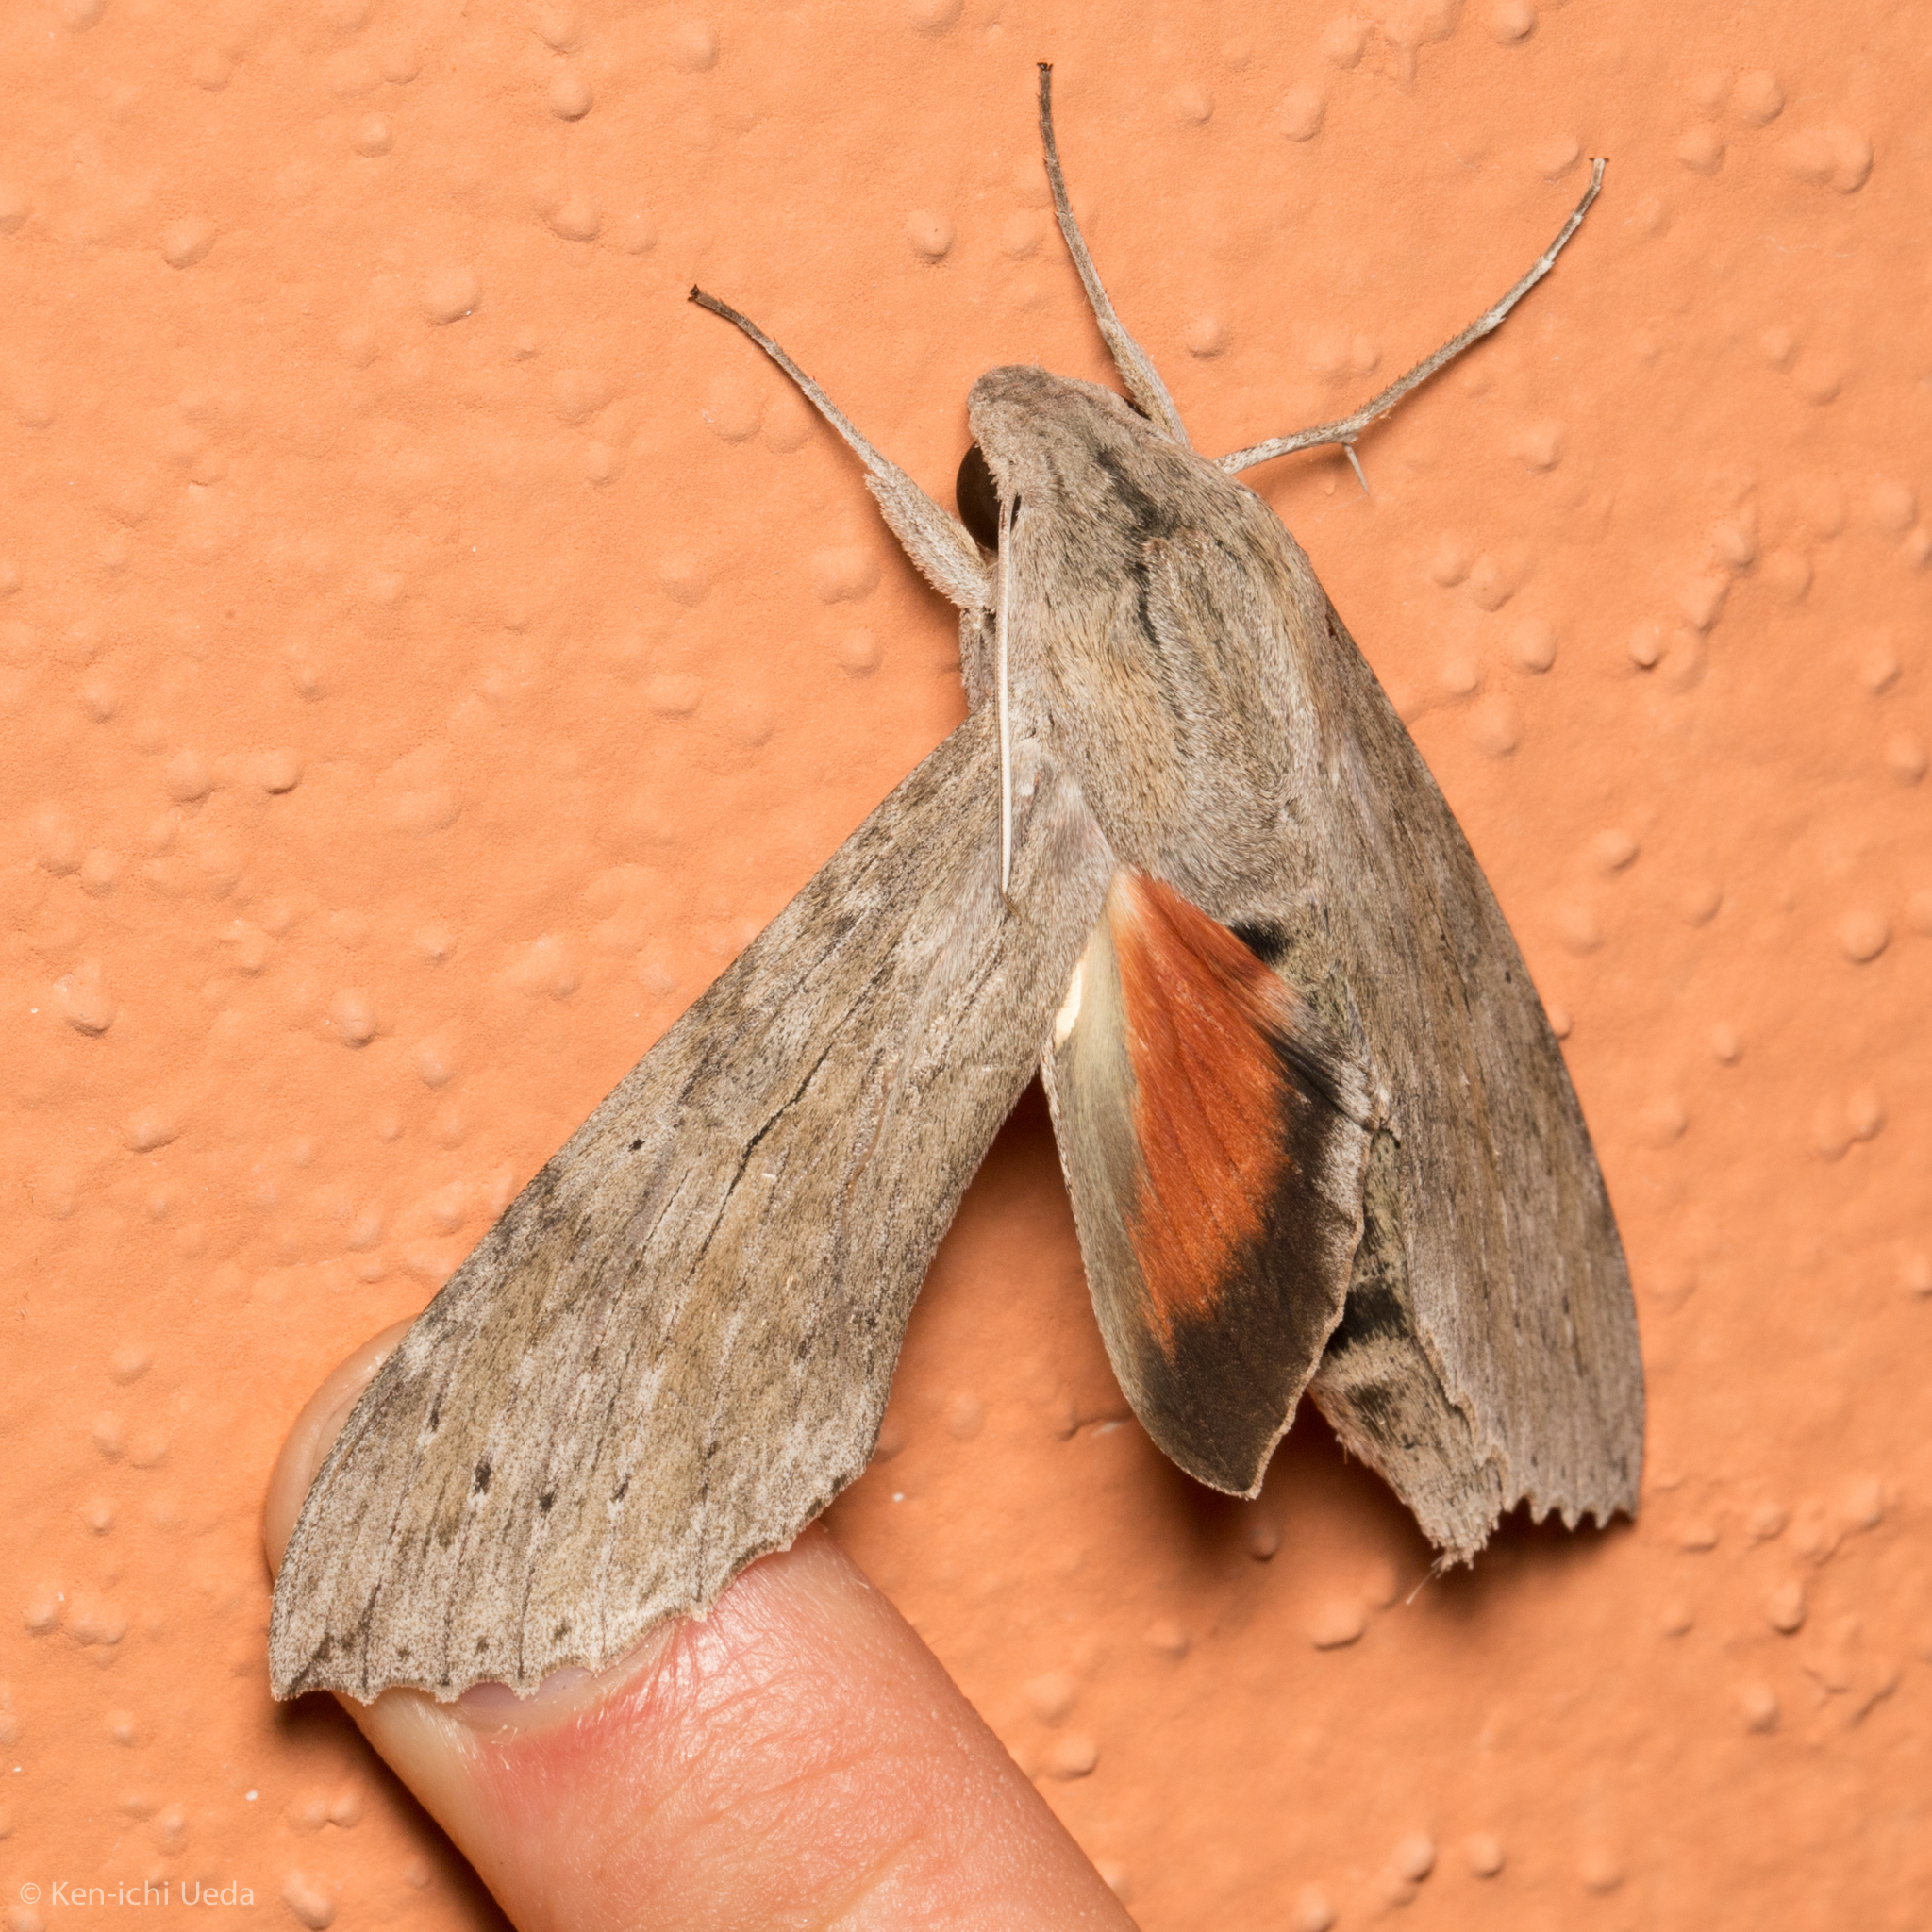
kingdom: Animalia
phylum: Arthropoda
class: Insecta
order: Lepidoptera
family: Sphingidae
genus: Erinnyis
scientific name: Erinnyis ello
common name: Ello sphinx
